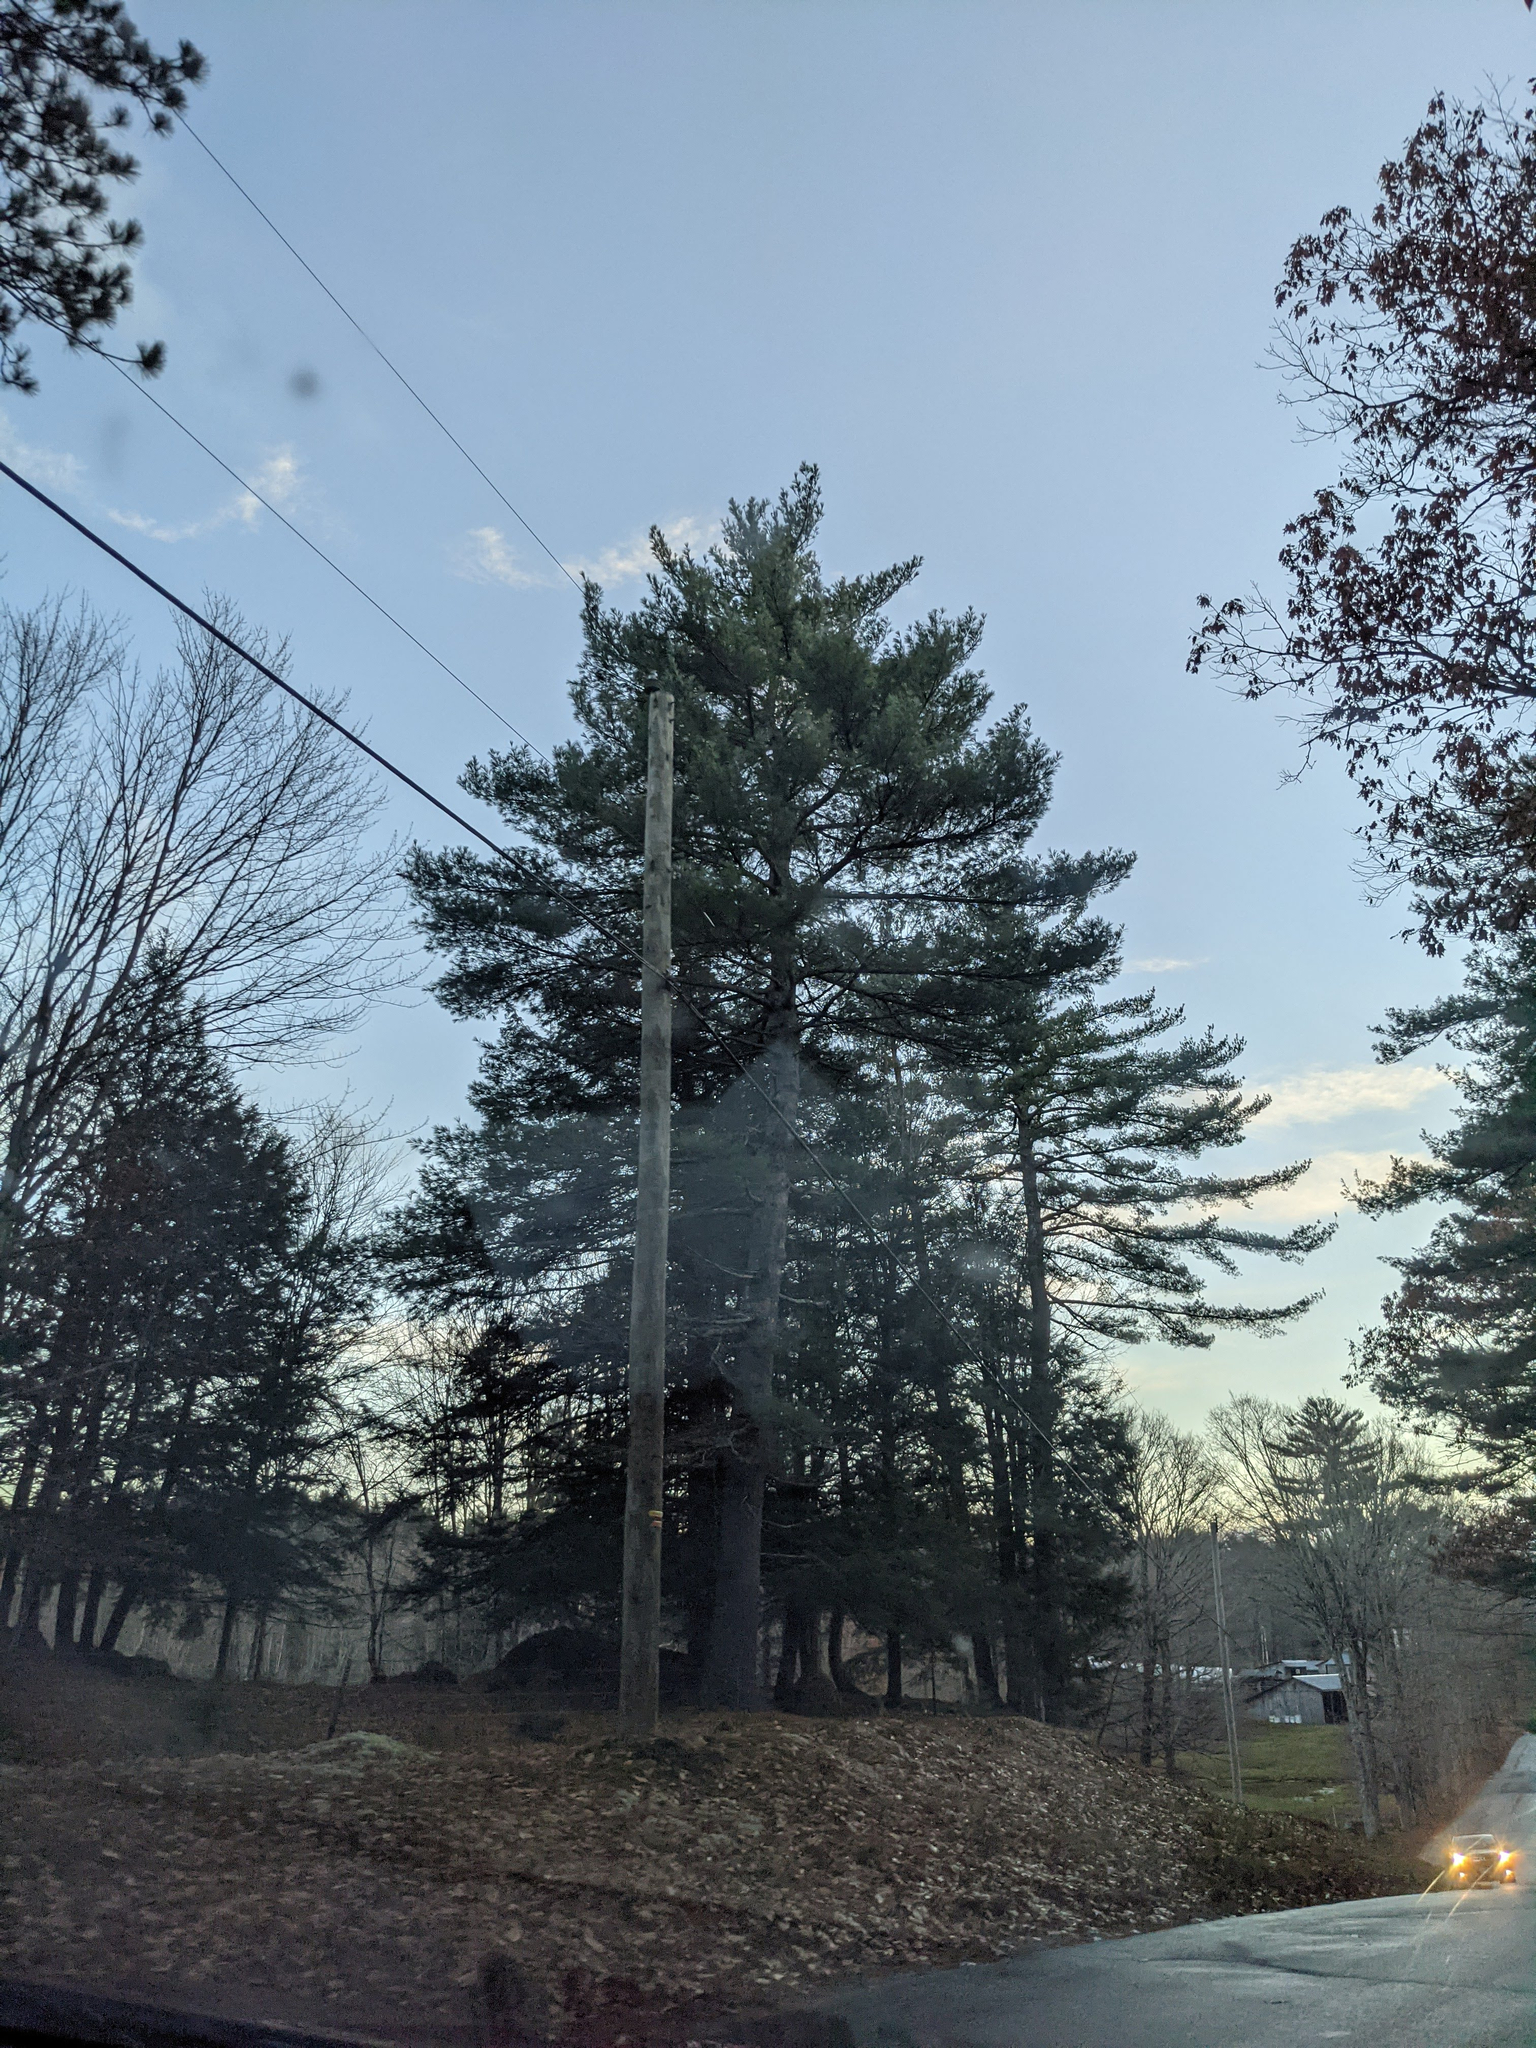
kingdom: Plantae
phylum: Tracheophyta
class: Pinopsida
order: Pinales
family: Pinaceae
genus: Pinus
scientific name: Pinus strobus
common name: Weymouth pine
